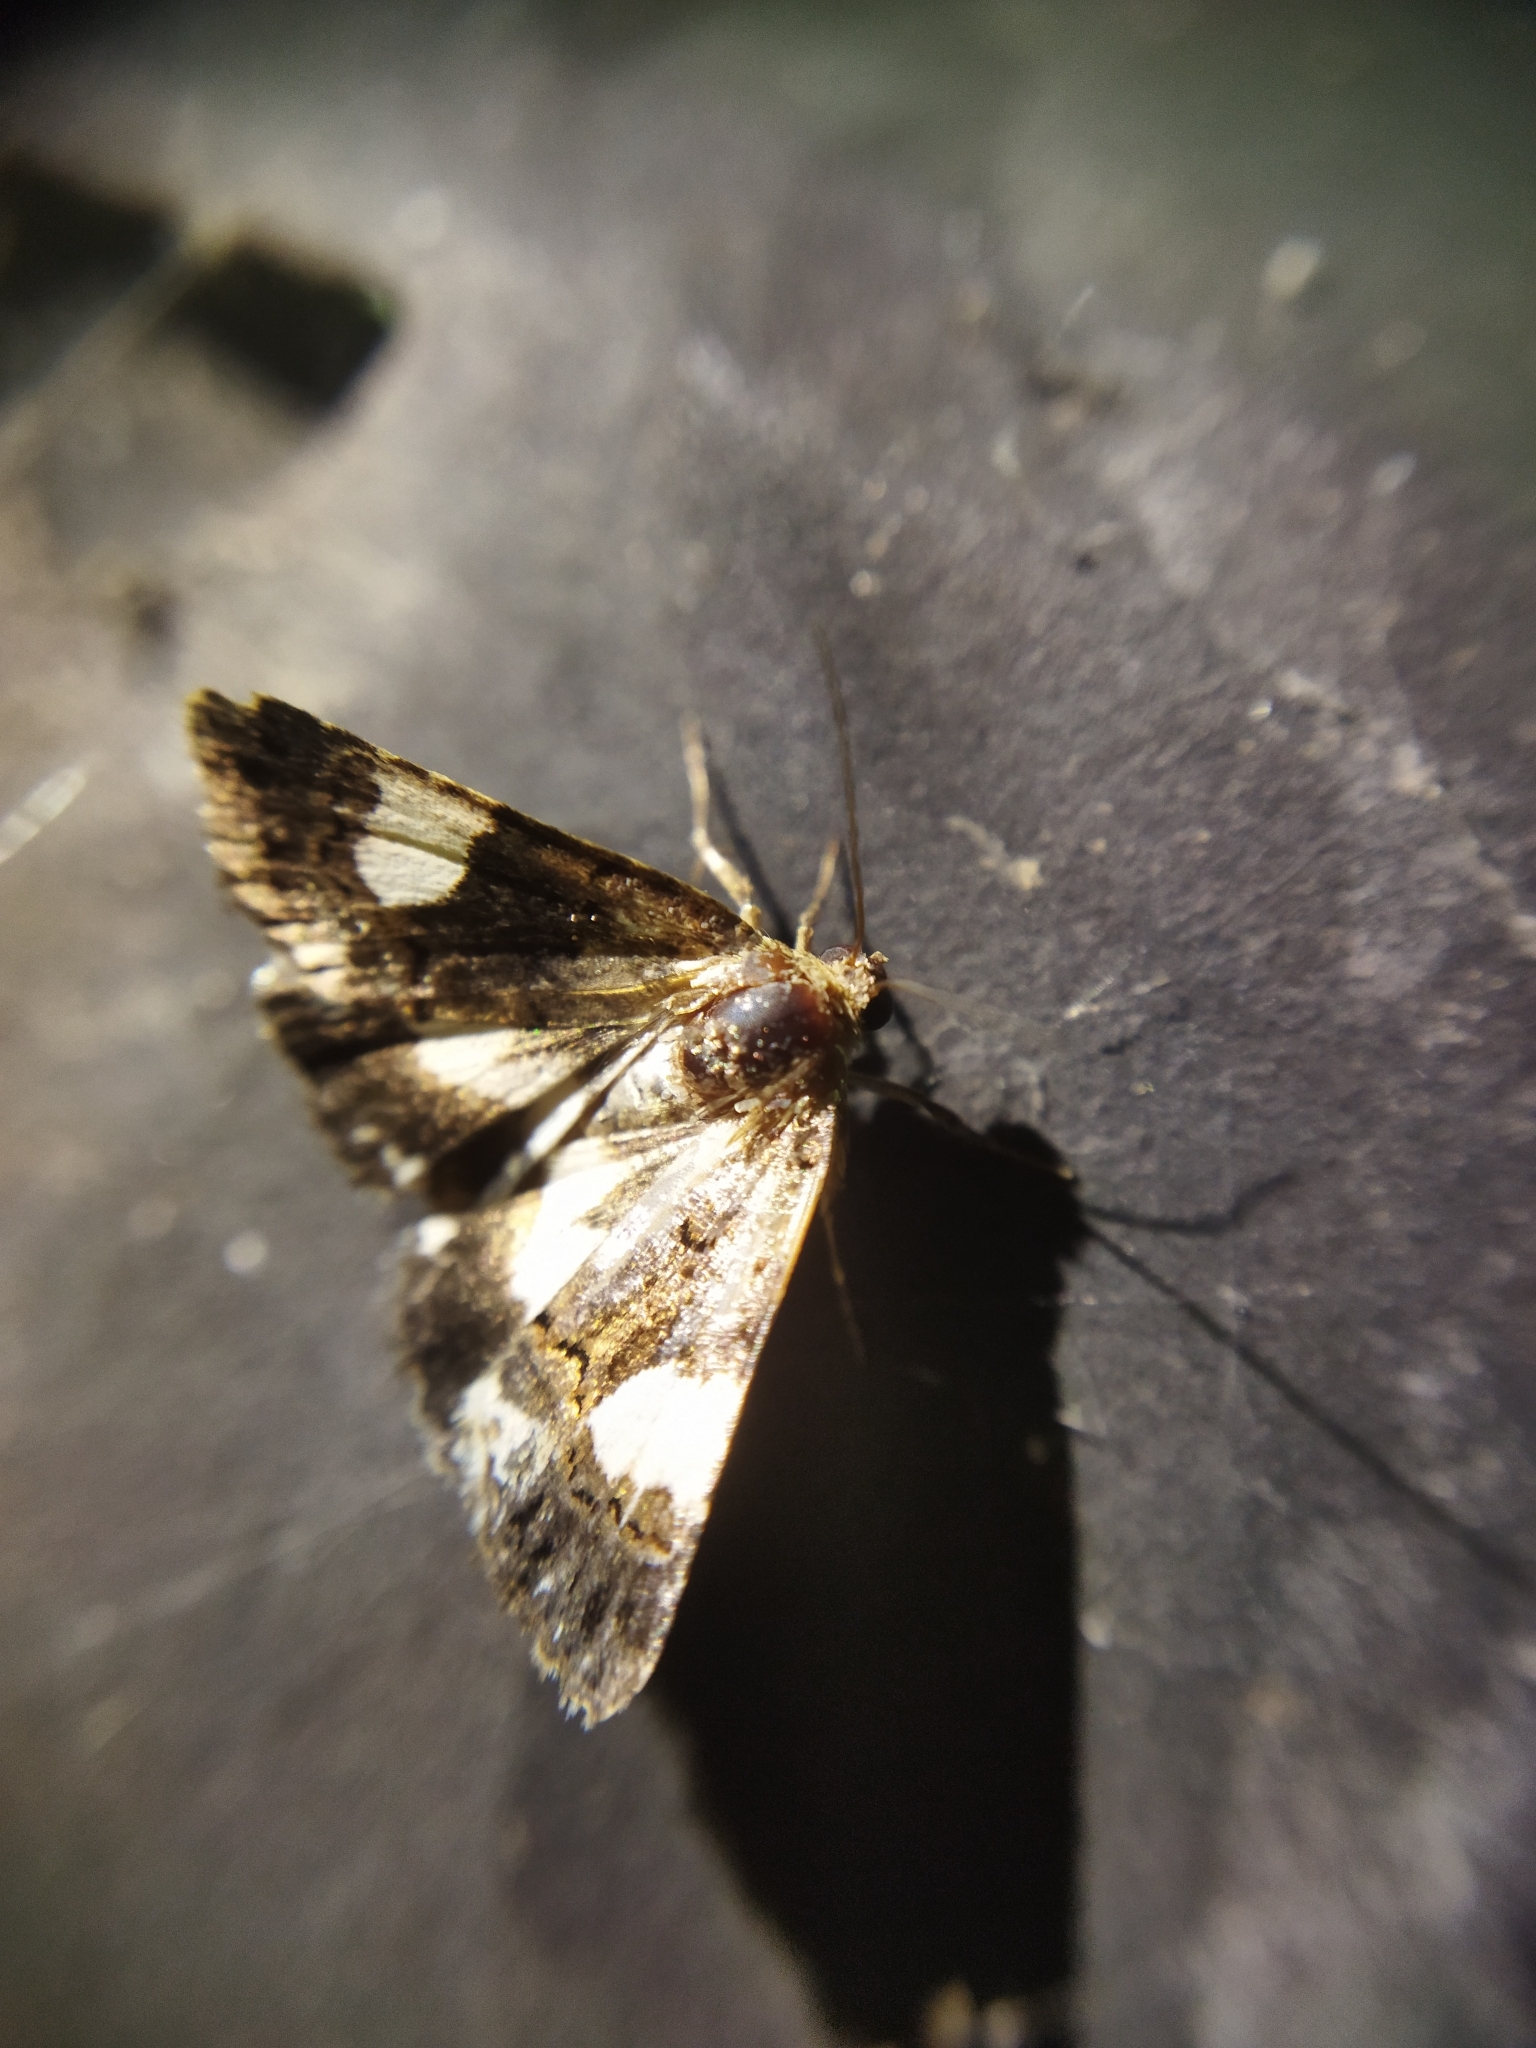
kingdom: Animalia
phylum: Arthropoda
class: Insecta
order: Lepidoptera
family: Erebidae
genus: Tyta
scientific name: Tyta luctuosa
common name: Four-spotted
